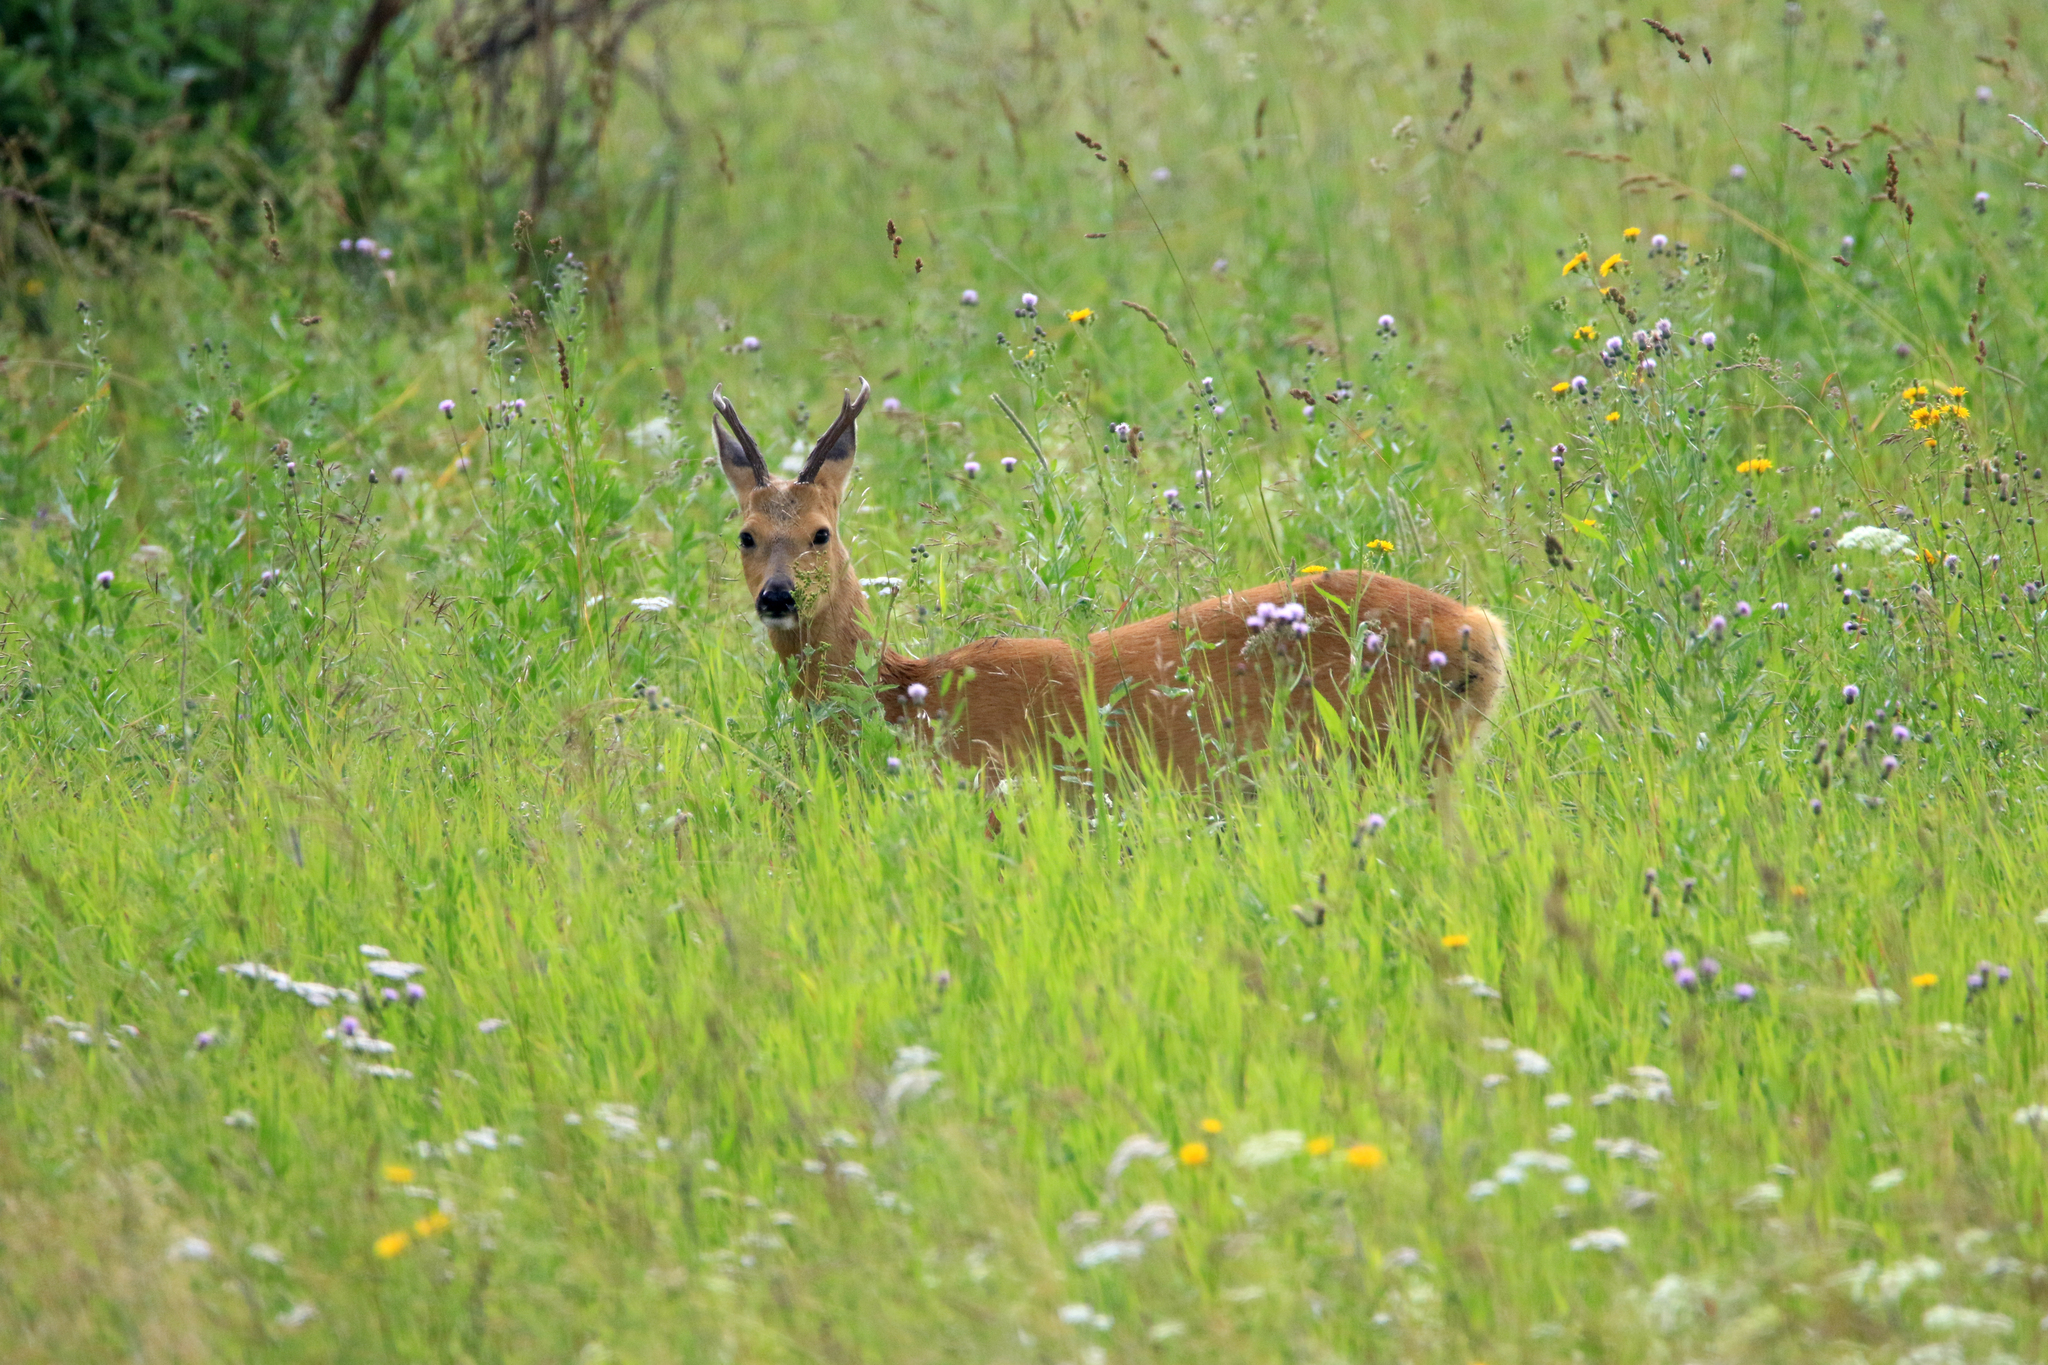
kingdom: Animalia
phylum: Chordata
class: Mammalia
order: Artiodactyla
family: Cervidae
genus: Capreolus
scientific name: Capreolus pygargus
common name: Siberian roe
